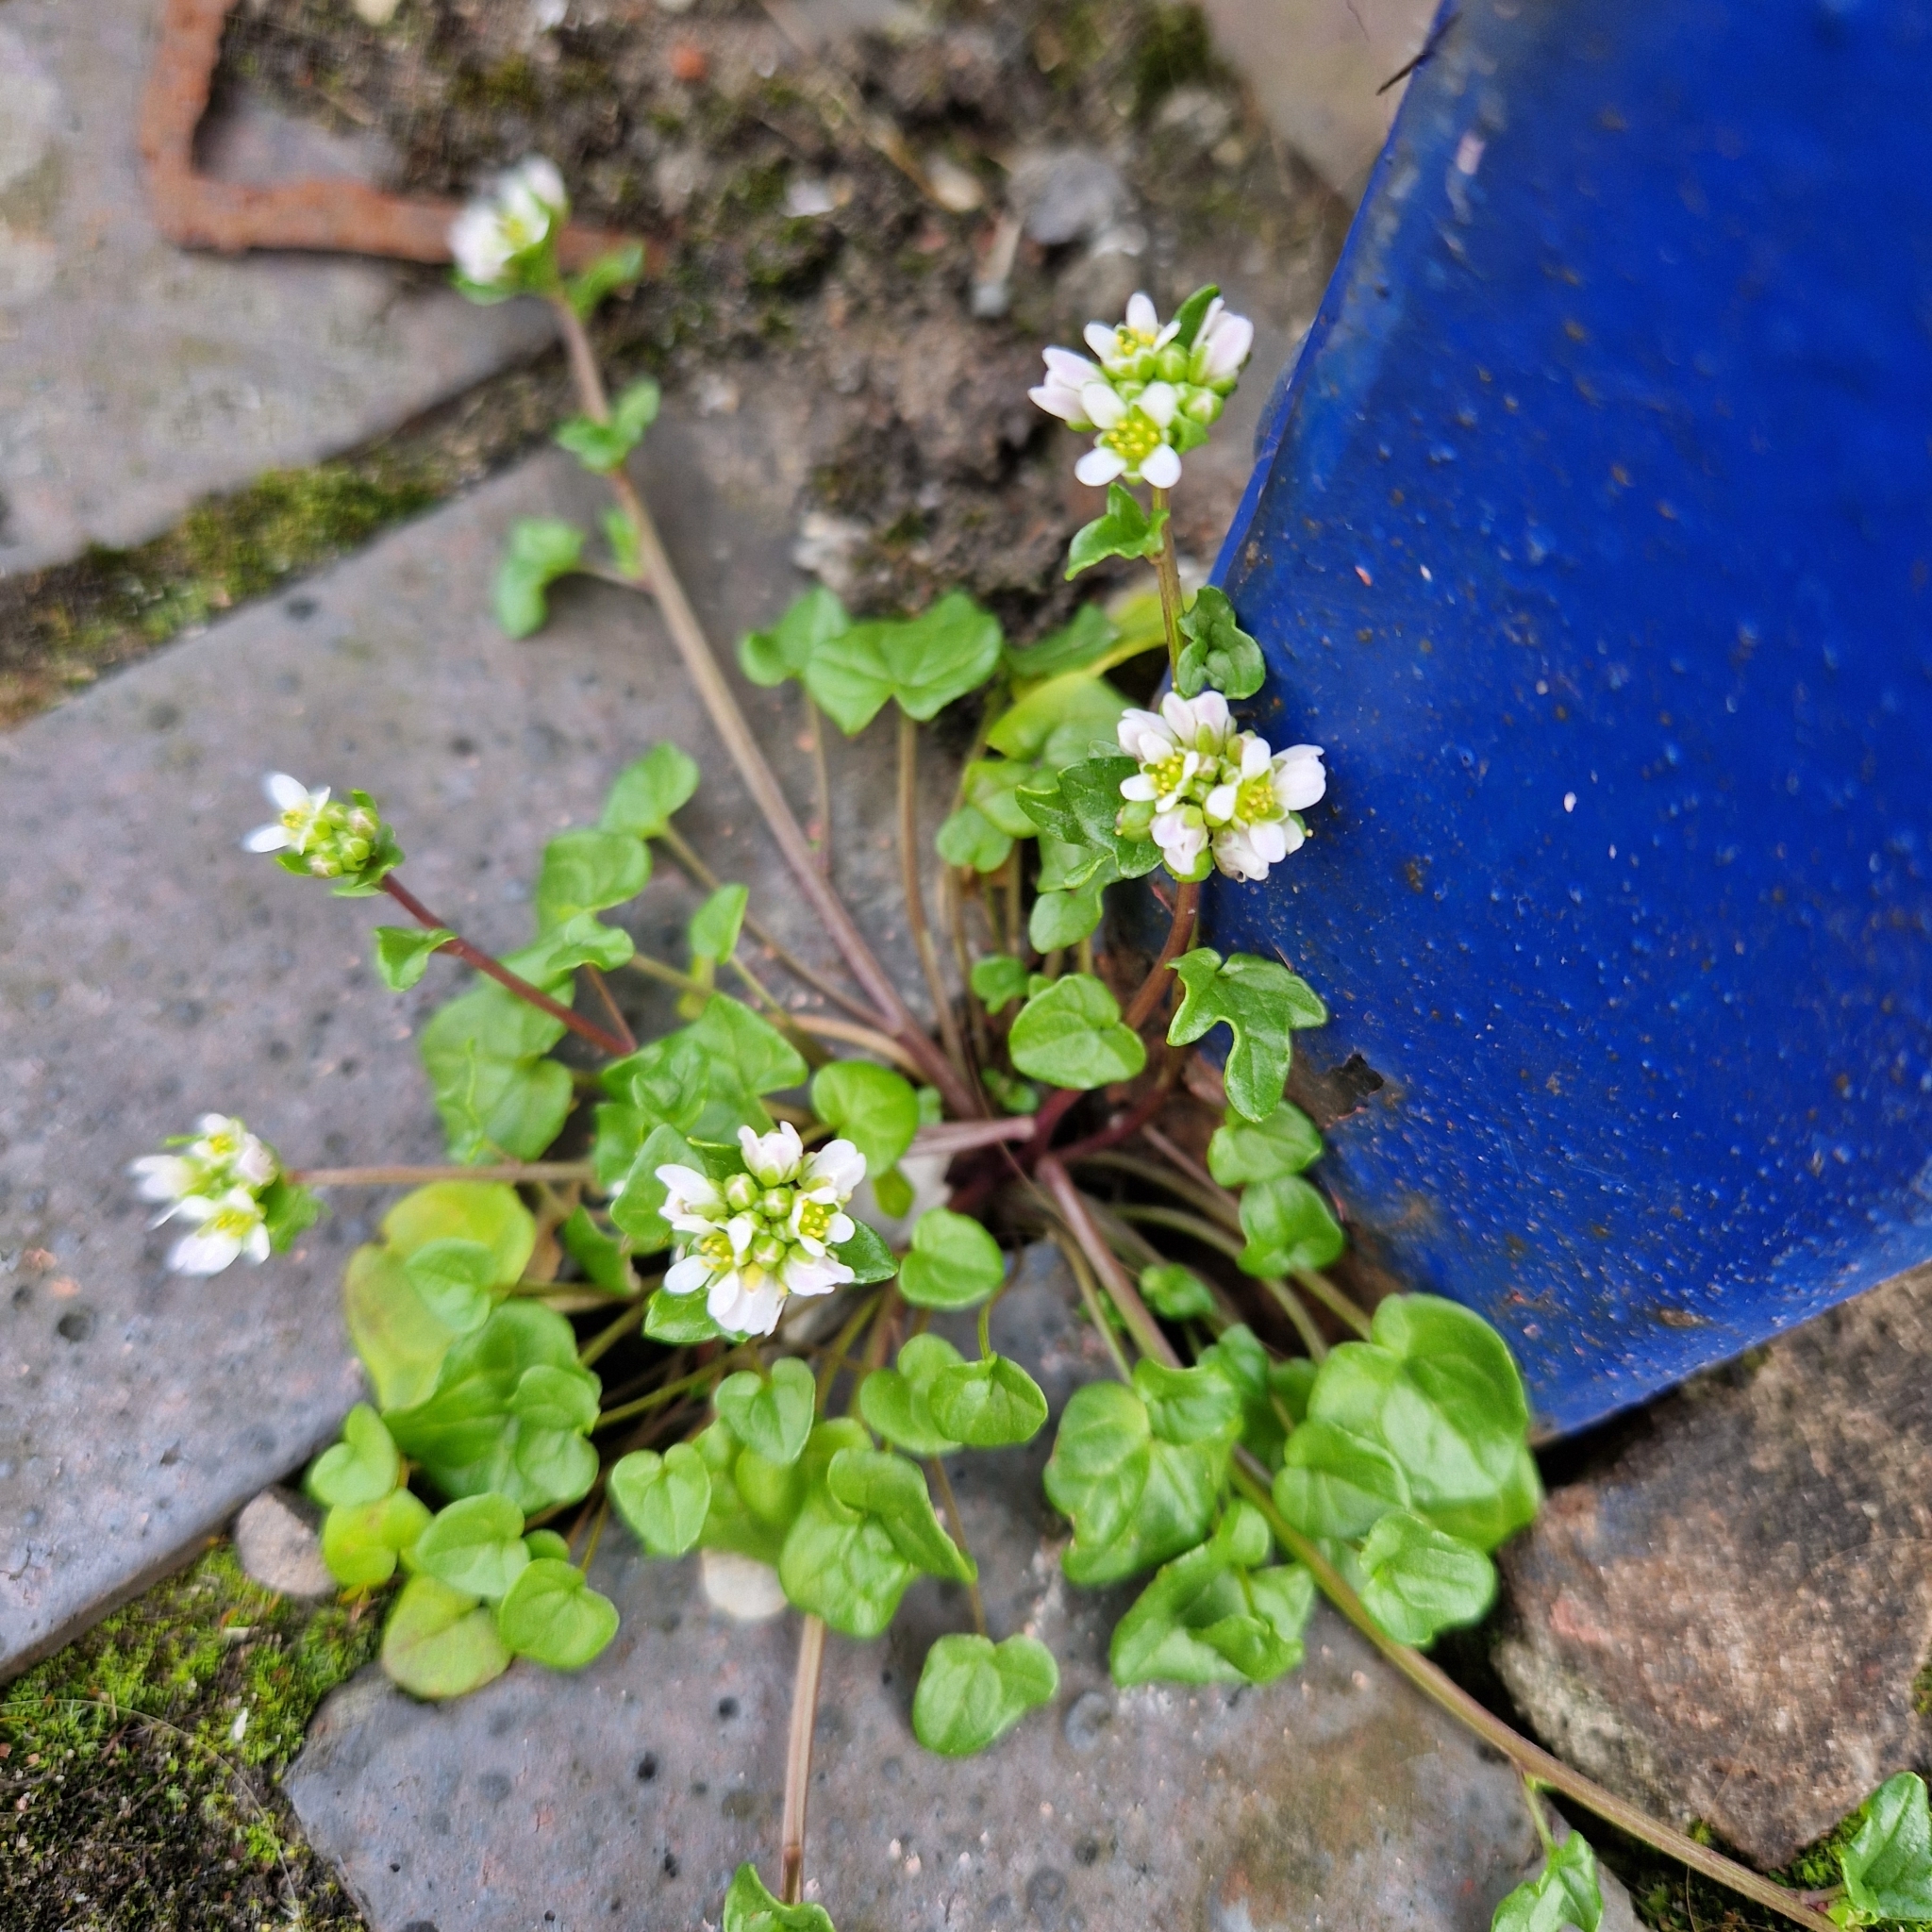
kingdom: Plantae
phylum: Tracheophyta
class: Magnoliopsida
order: Brassicales
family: Brassicaceae
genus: Cochlearia
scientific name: Cochlearia danica
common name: Early scurvygrass
